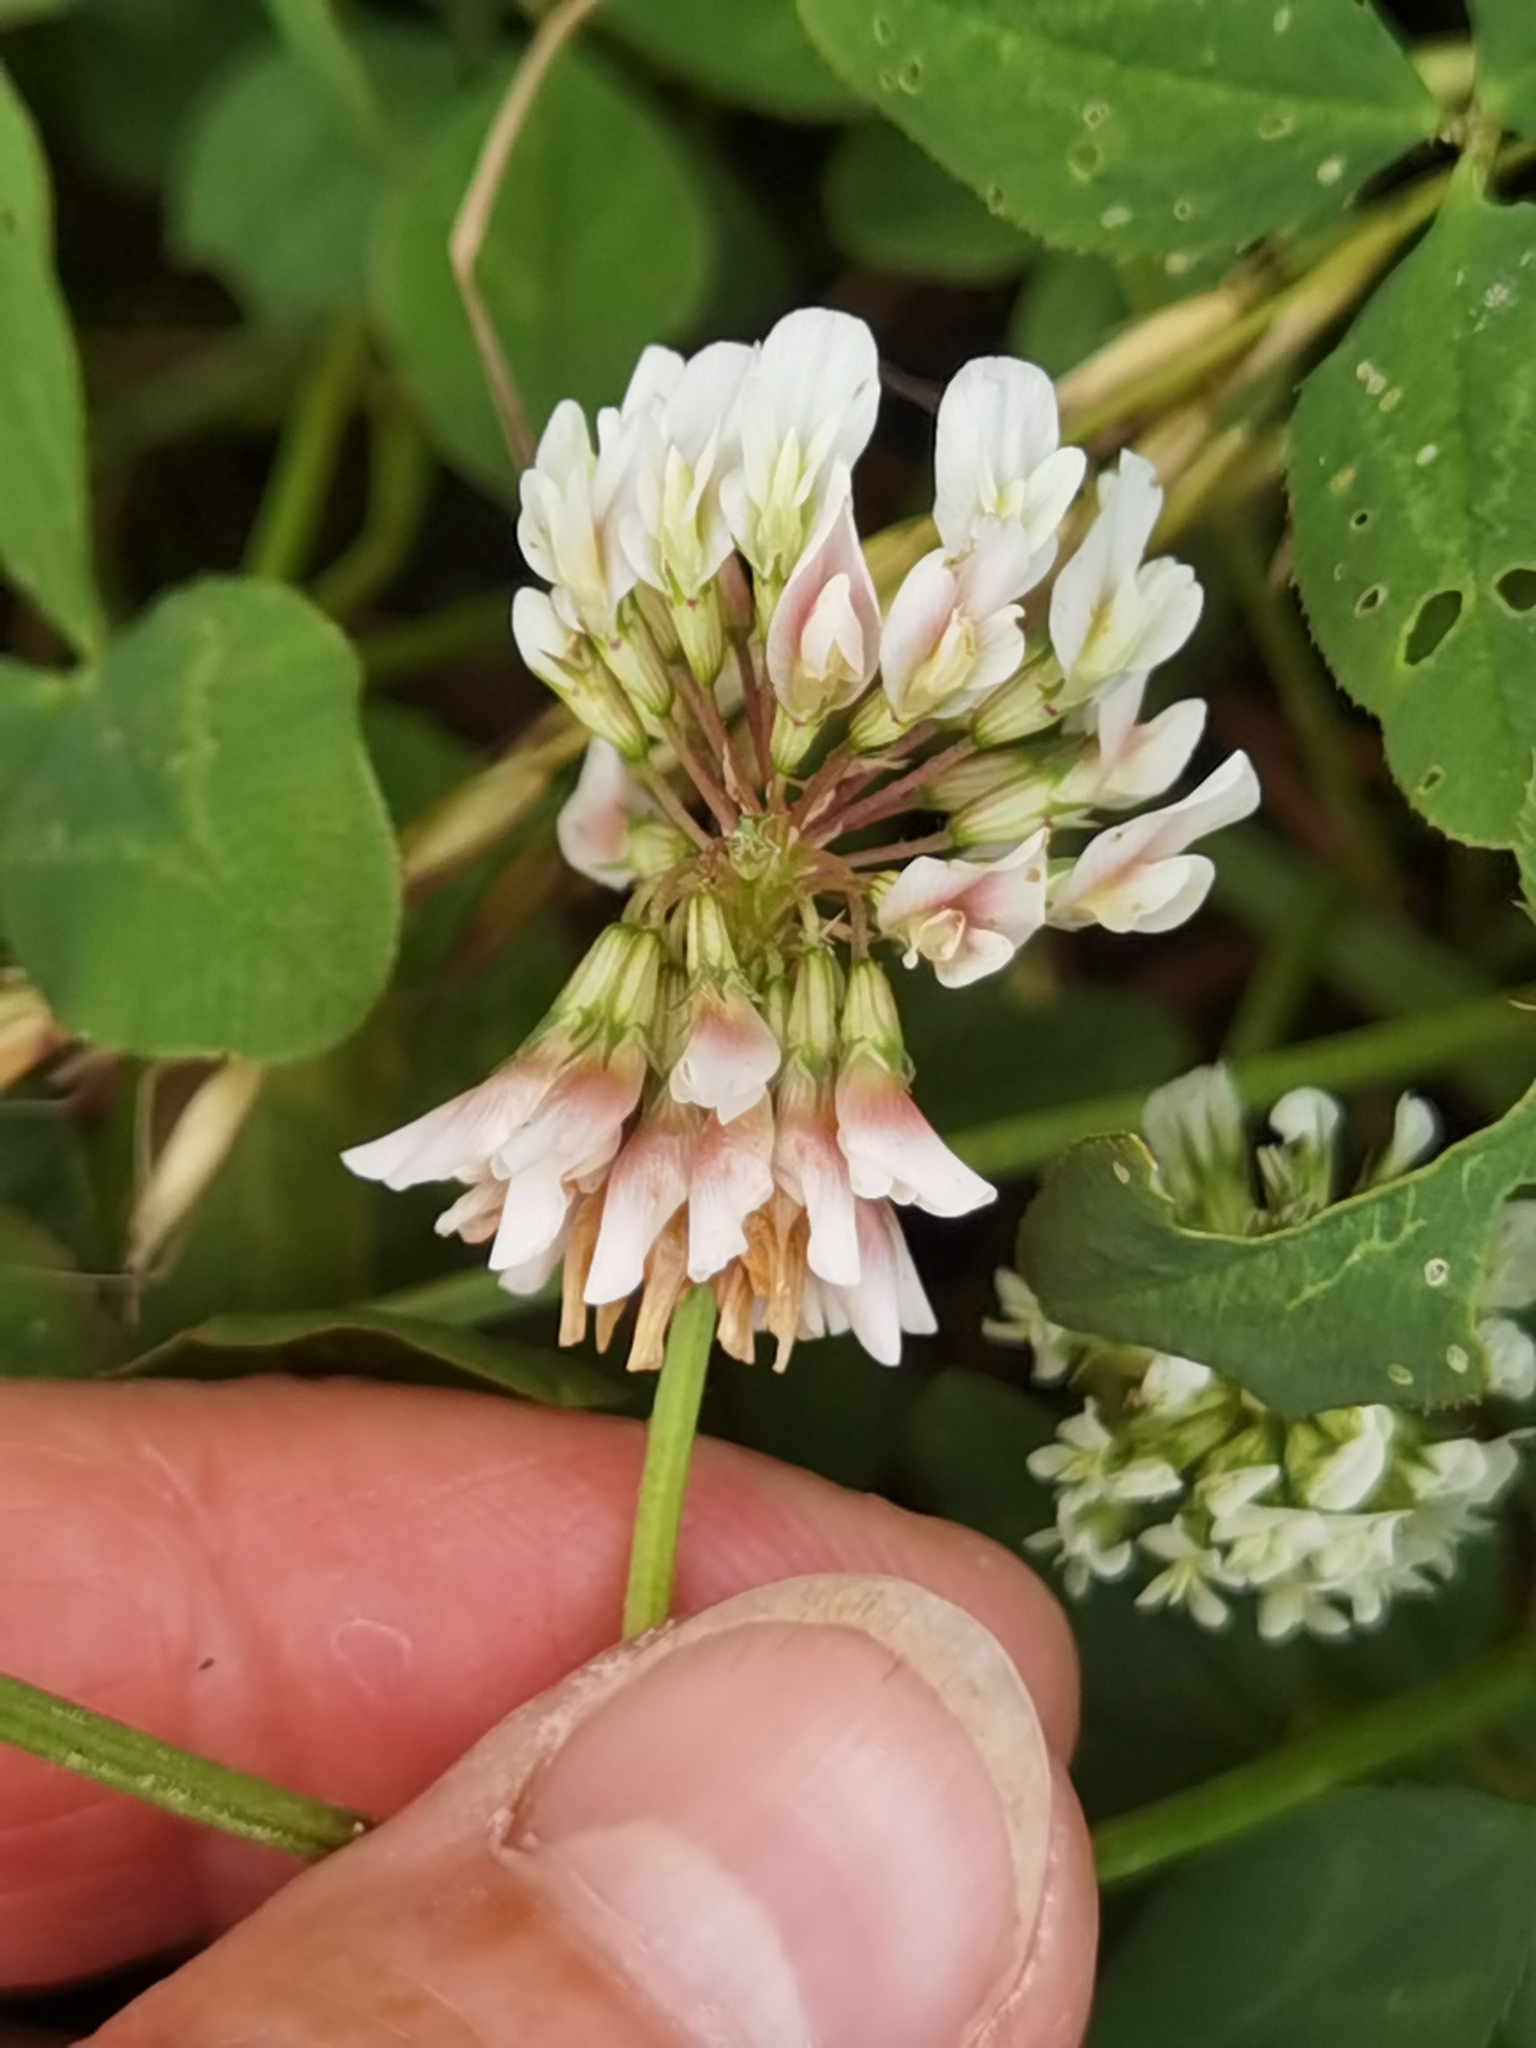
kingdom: Plantae
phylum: Tracheophyta
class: Magnoliopsida
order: Fabales
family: Fabaceae
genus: Trifolium
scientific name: Trifolium repens
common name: White clover
